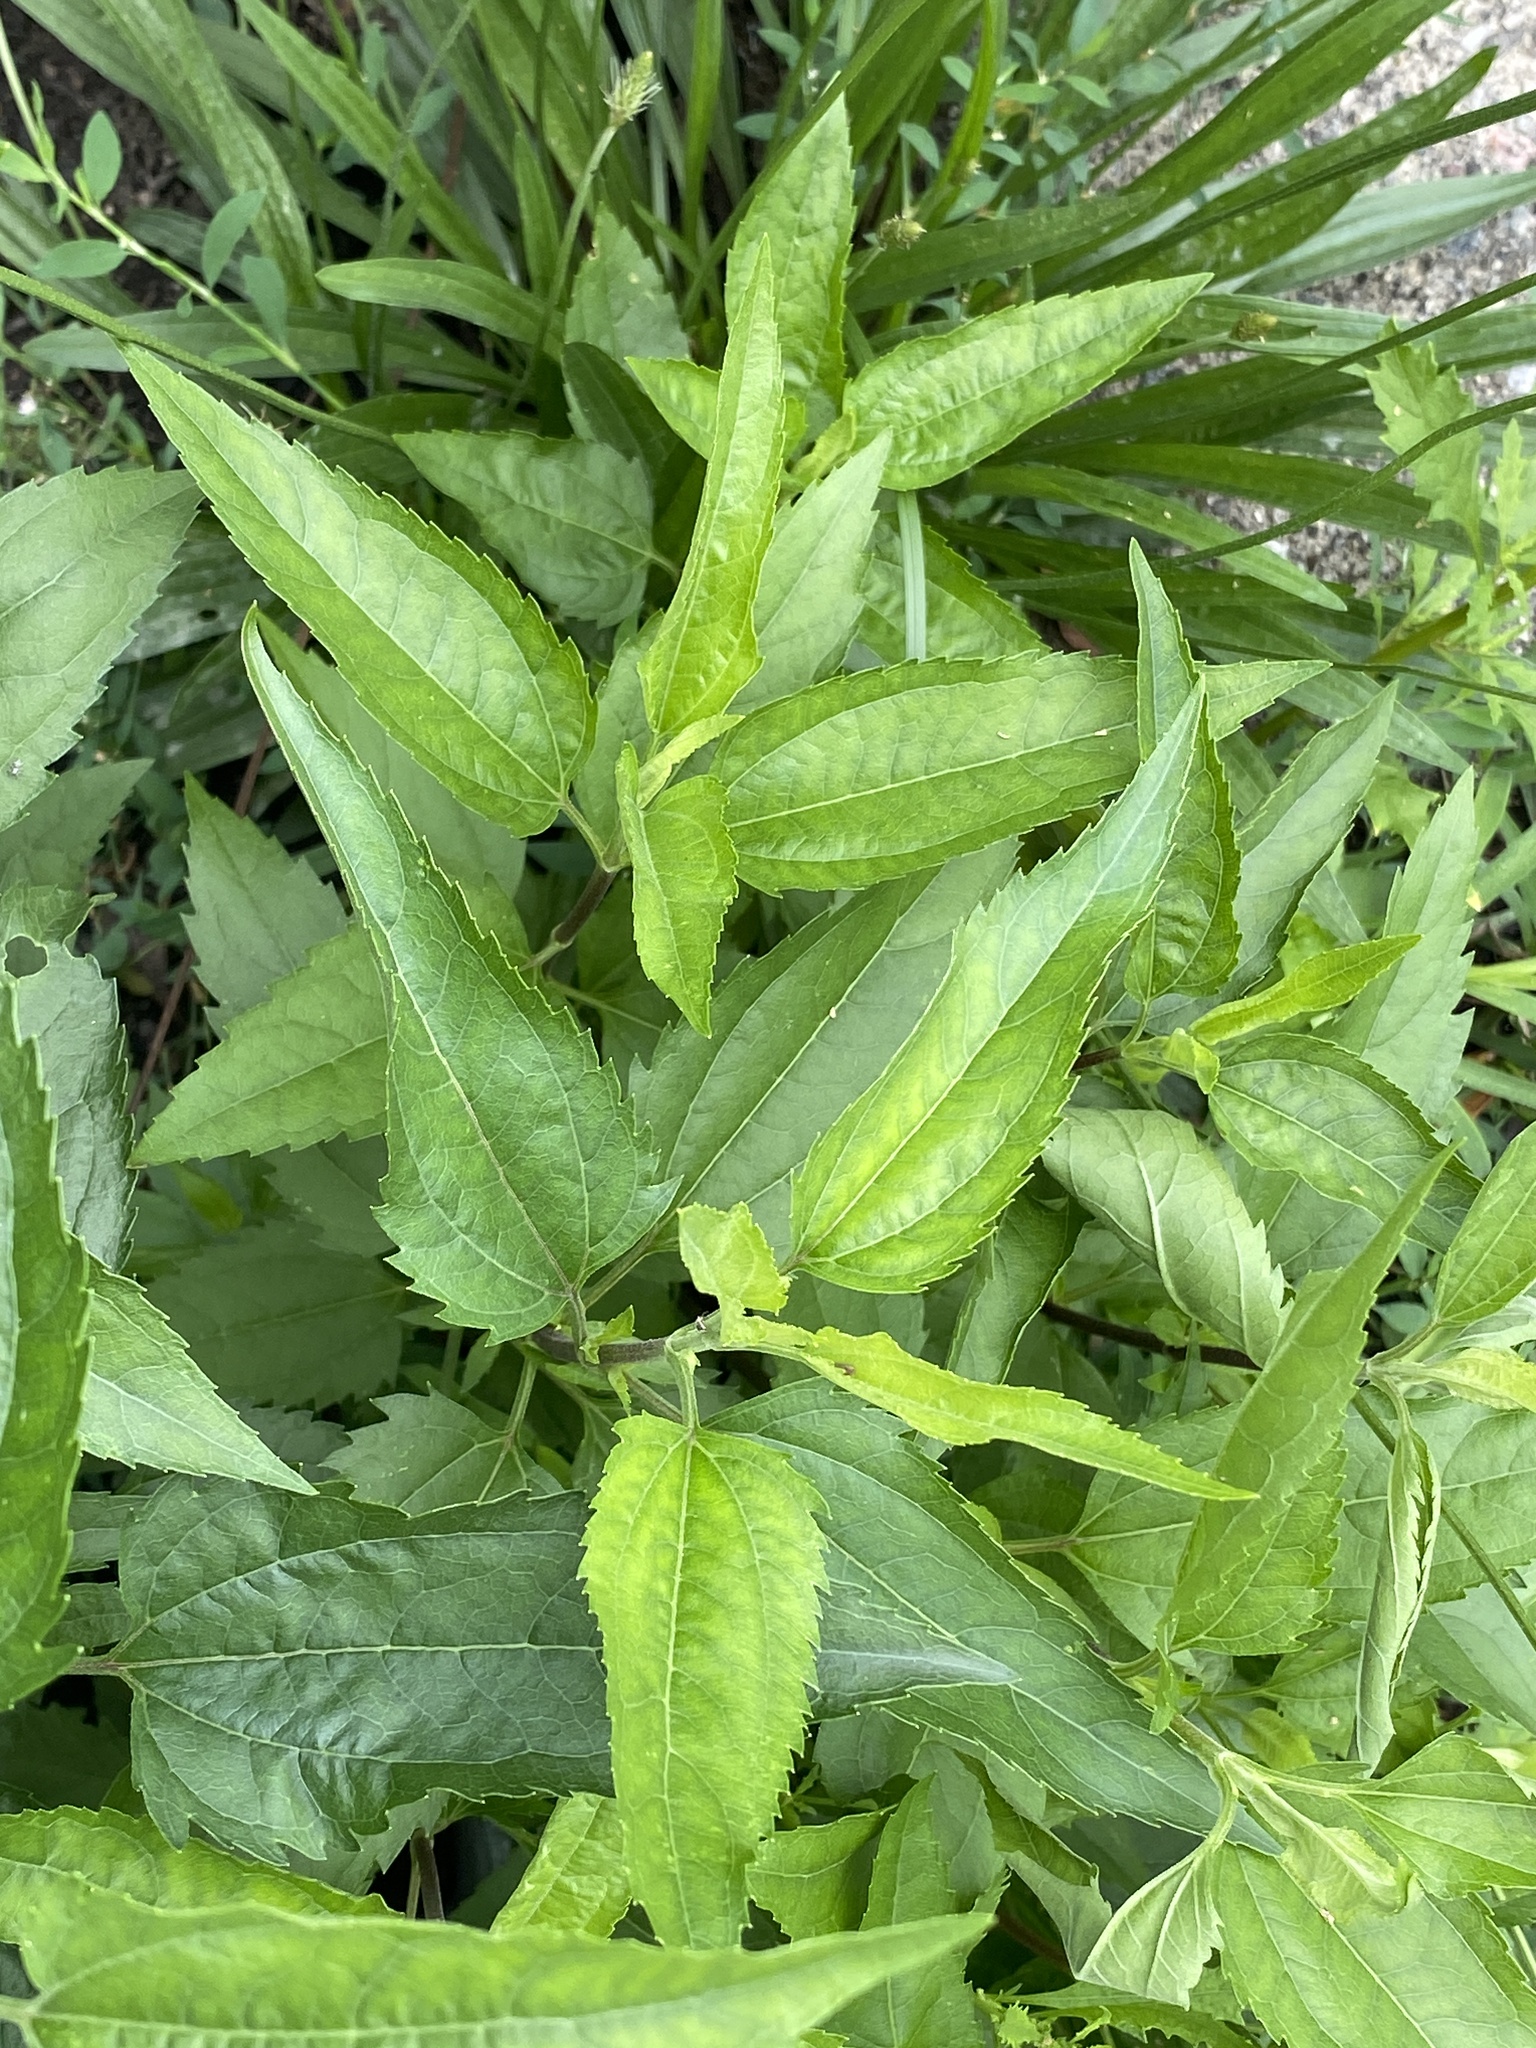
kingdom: Plantae
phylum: Tracheophyta
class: Magnoliopsida
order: Asterales
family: Asteraceae
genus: Eupatorium
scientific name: Eupatorium serotinum
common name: Late boneset
